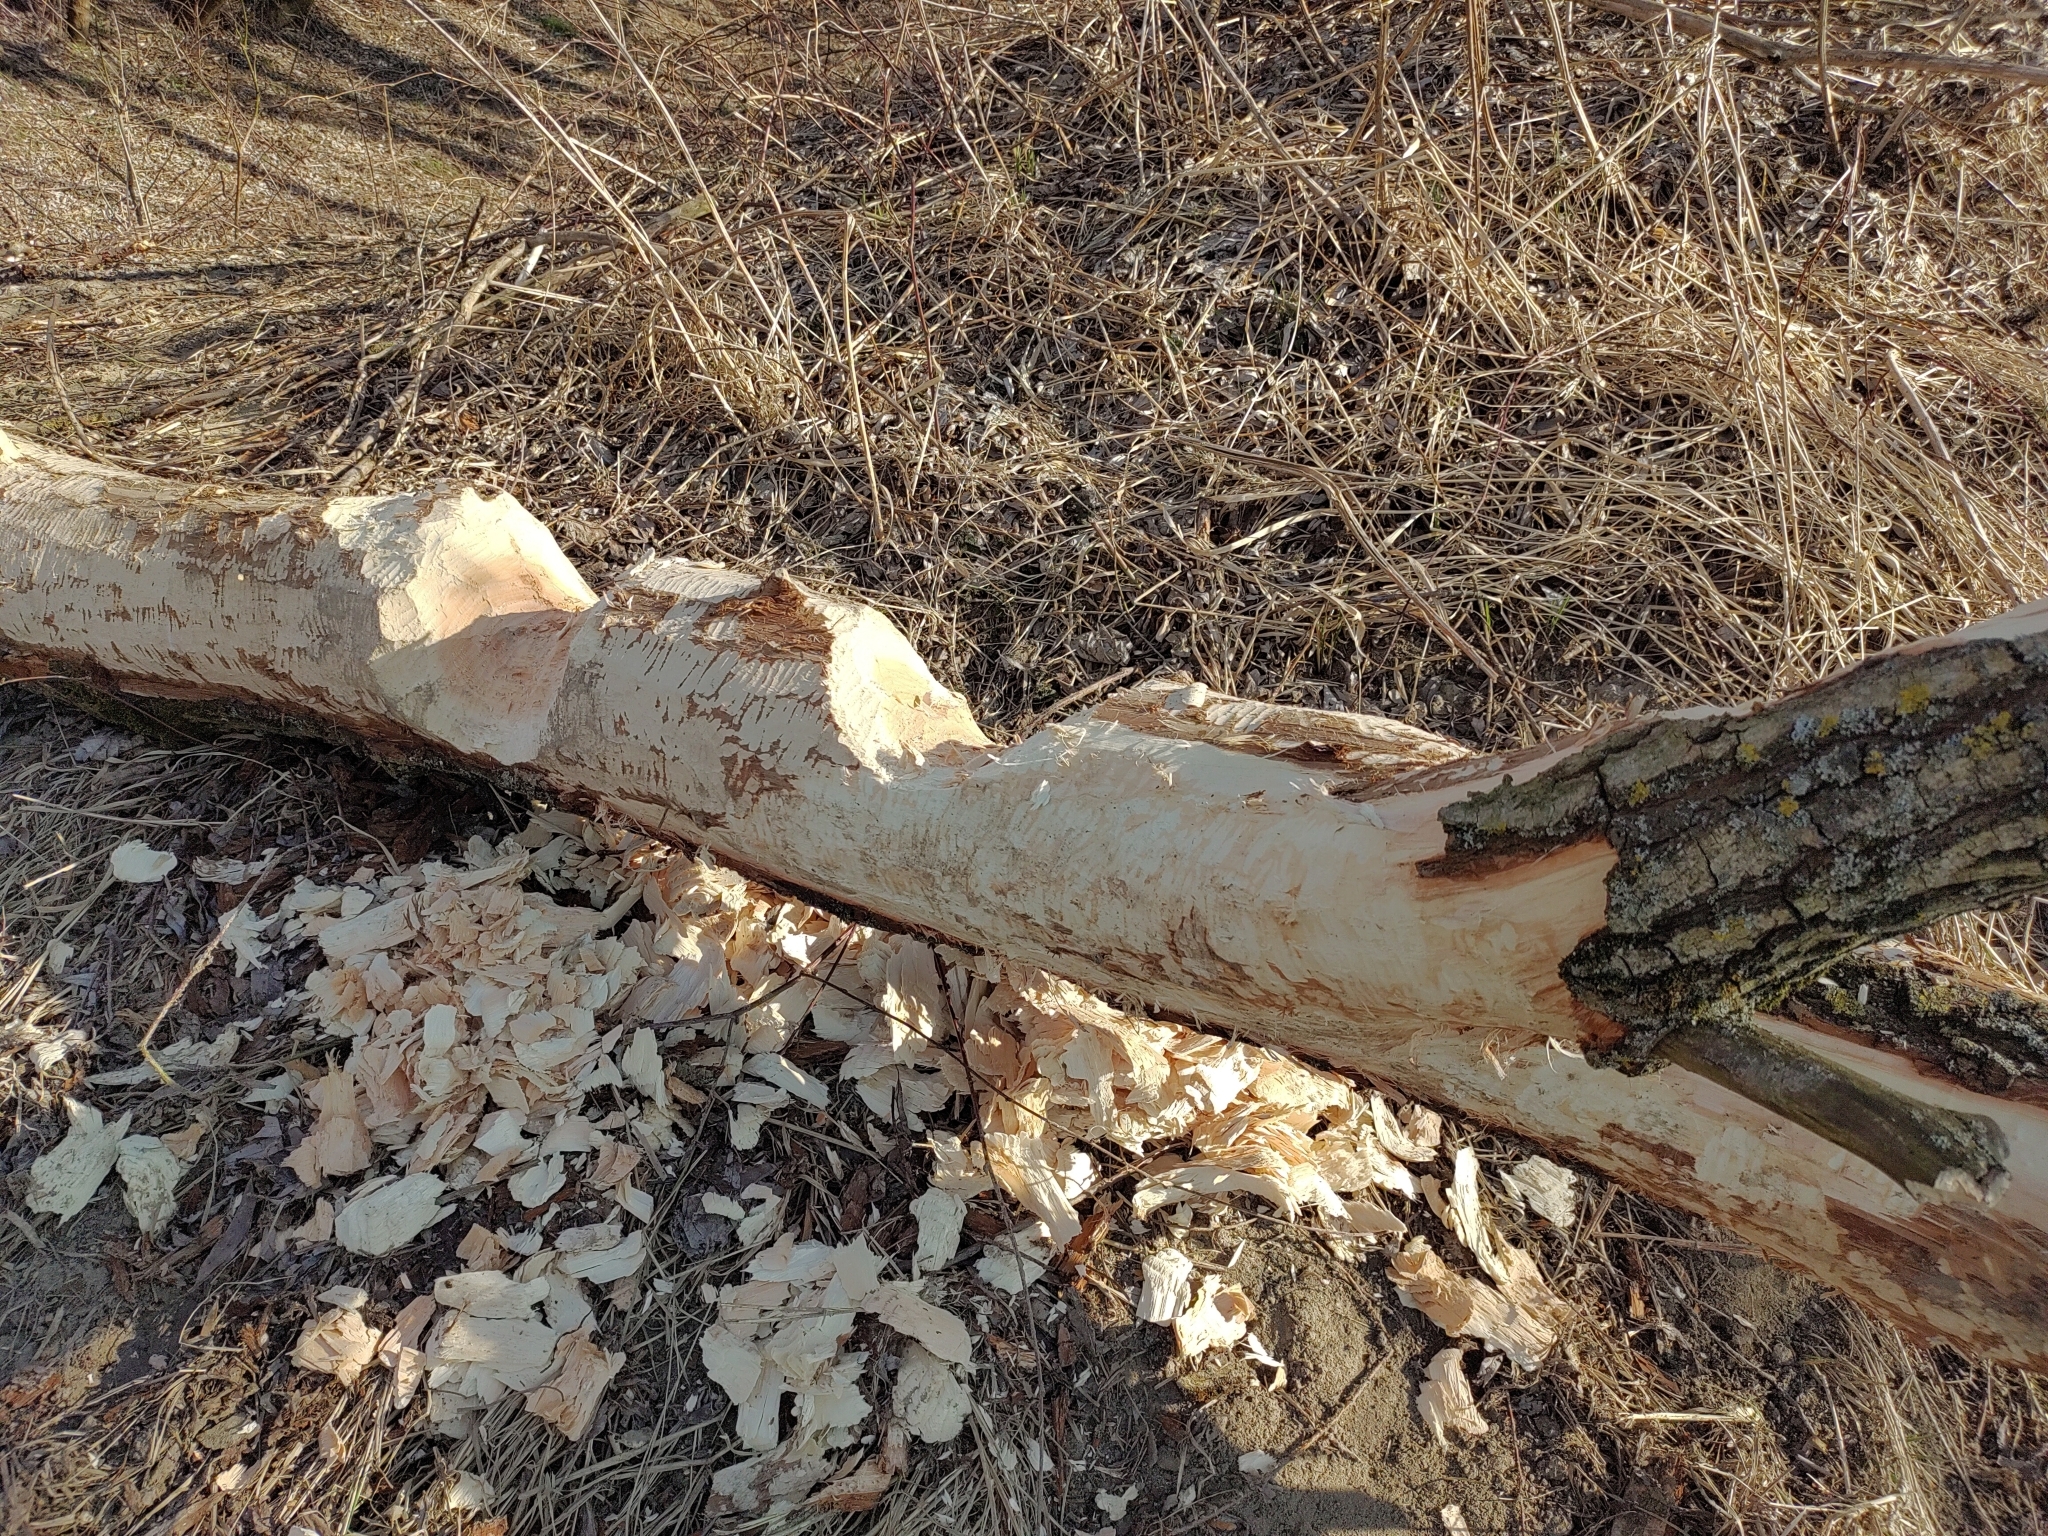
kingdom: Animalia
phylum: Chordata
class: Mammalia
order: Rodentia
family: Castoridae
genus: Castor
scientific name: Castor fiber
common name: Eurasian beaver
